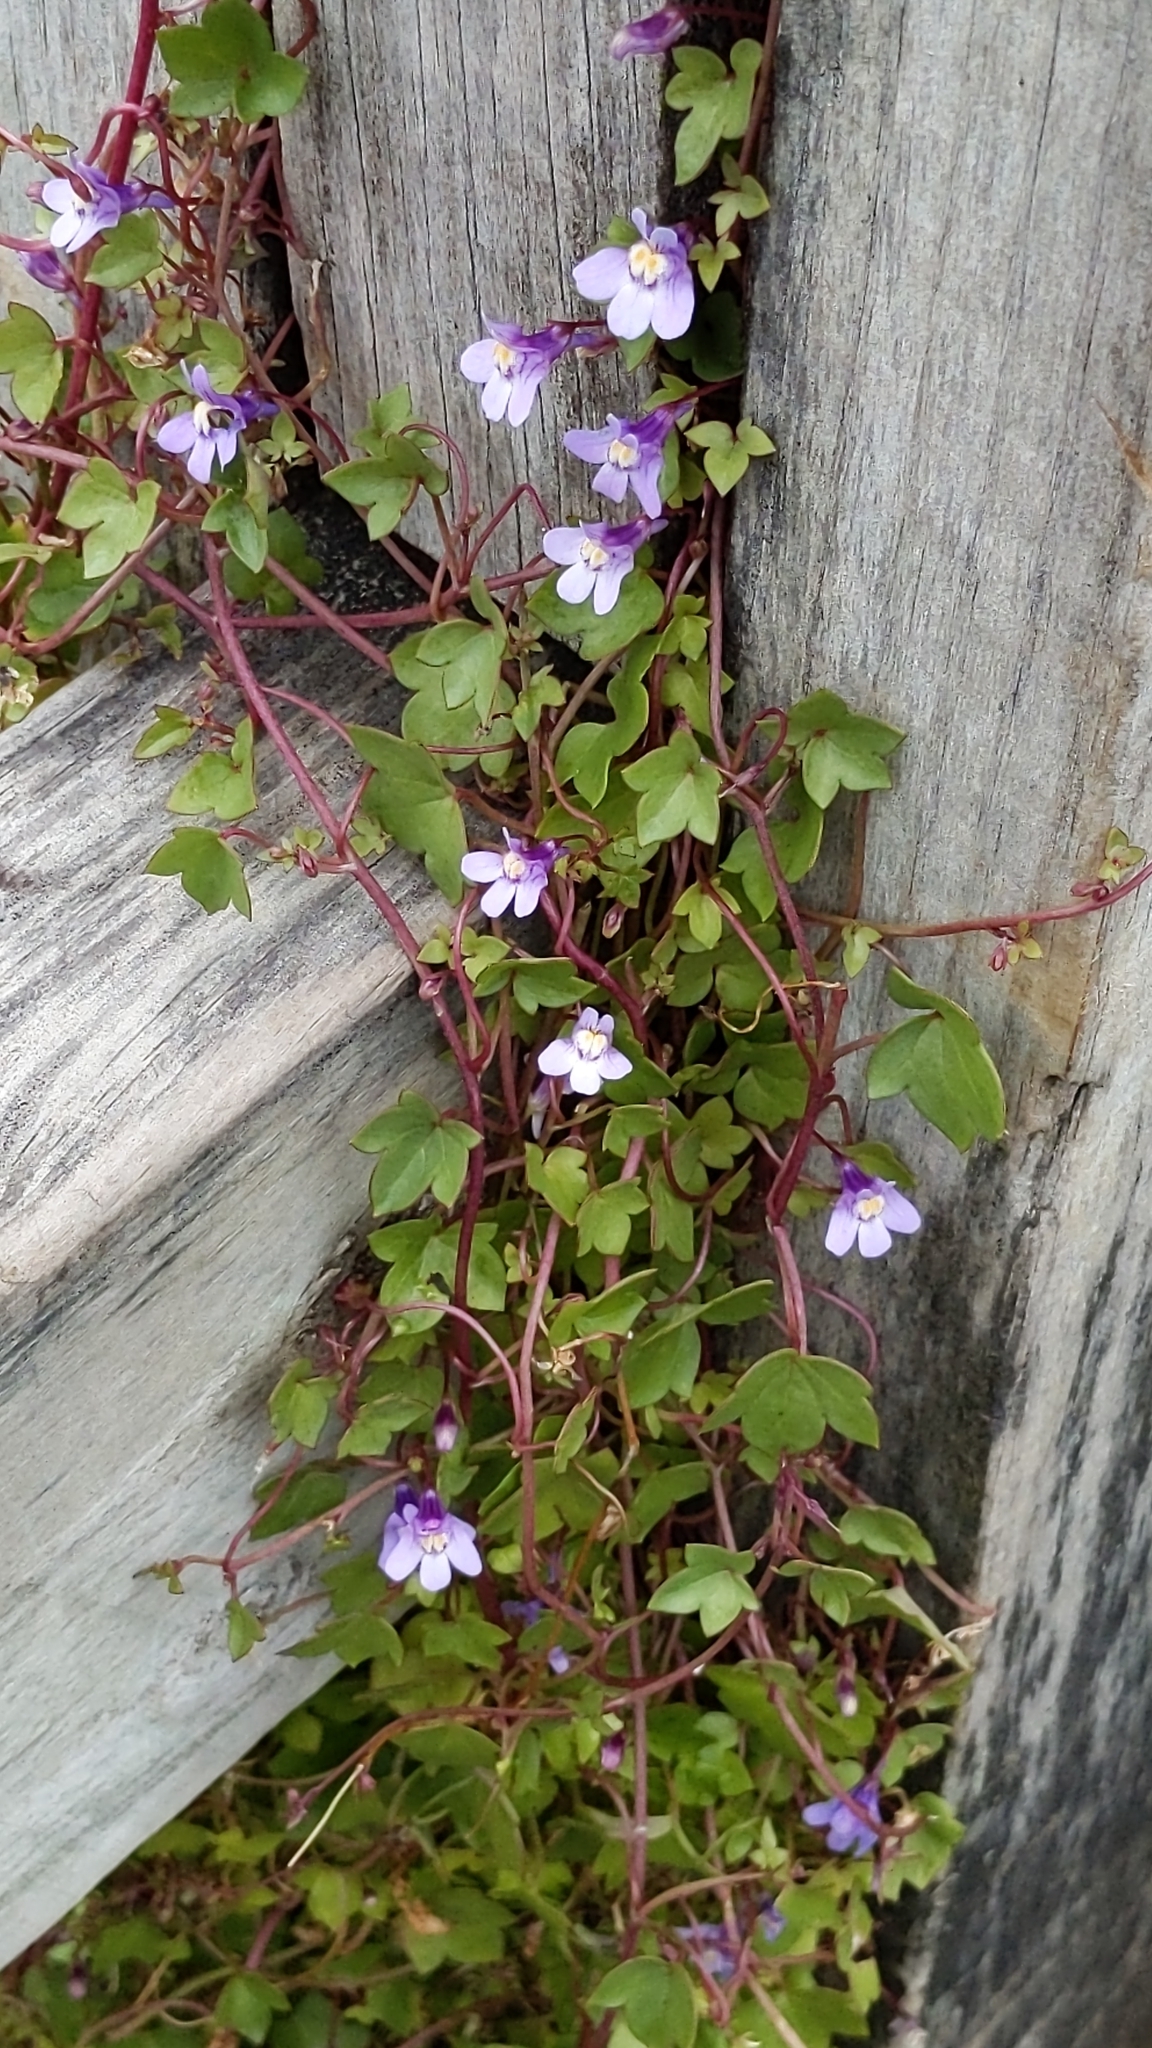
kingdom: Plantae
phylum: Tracheophyta
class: Magnoliopsida
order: Lamiales
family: Plantaginaceae
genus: Cymbalaria
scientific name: Cymbalaria muralis
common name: Ivy-leaved toadflax
